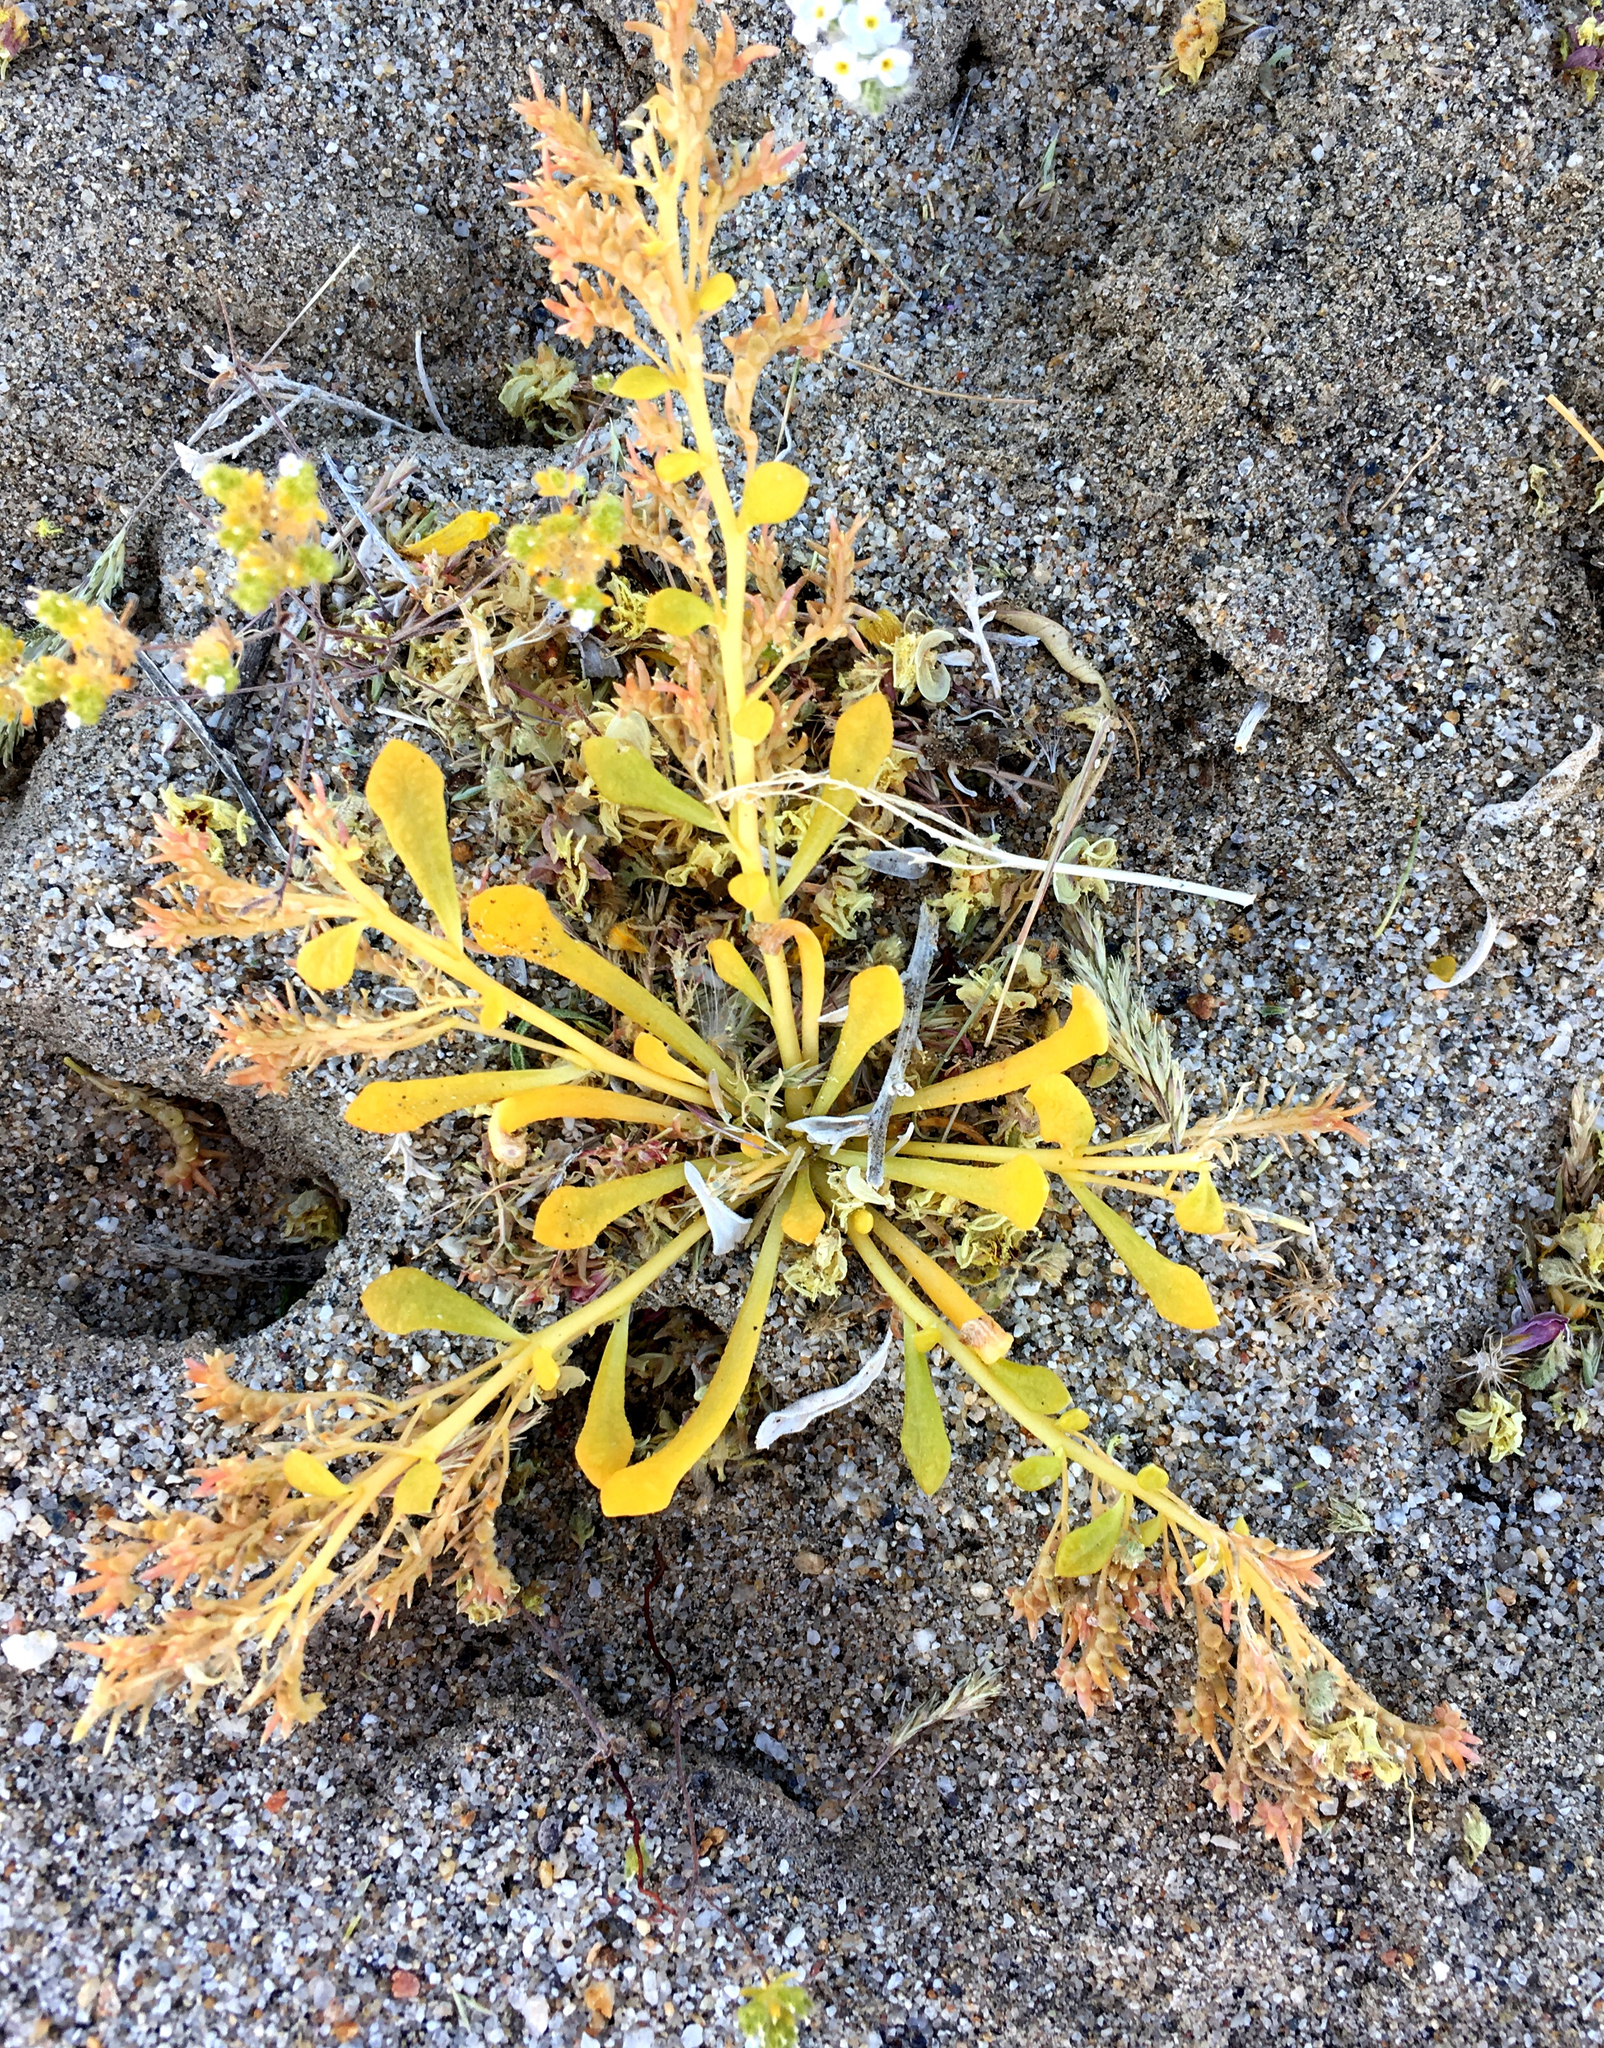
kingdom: Plantae
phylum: Tracheophyta
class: Magnoliopsida
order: Caryophyllales
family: Montiaceae
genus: Calyptridium
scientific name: Calyptridium monandrum
